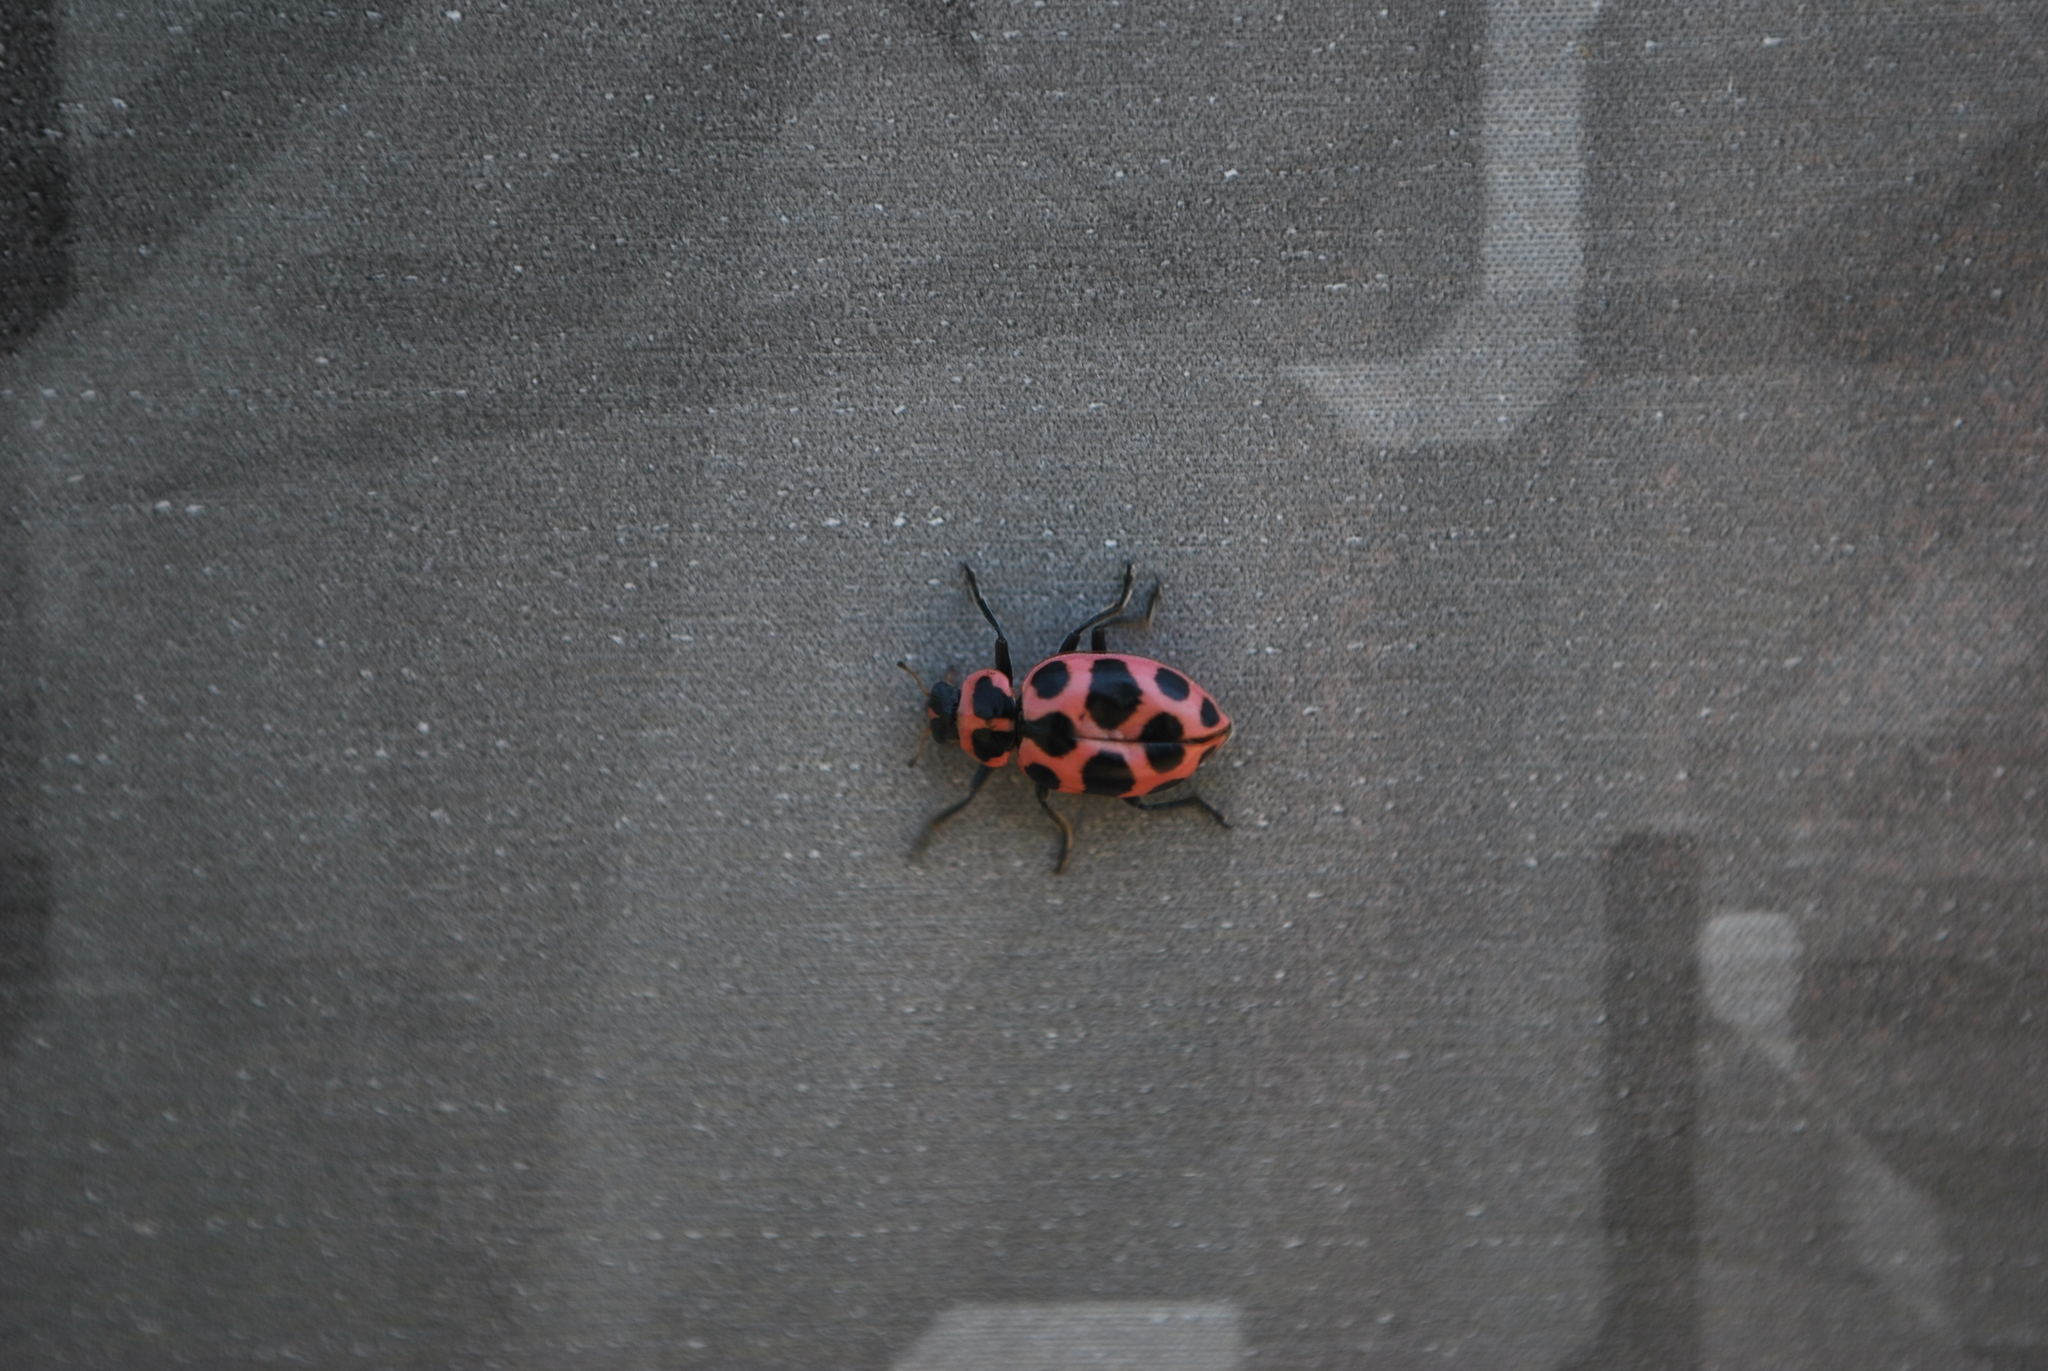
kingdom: Animalia
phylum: Arthropoda
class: Insecta
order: Coleoptera
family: Coccinellidae
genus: Coleomegilla
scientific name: Coleomegilla maculata
